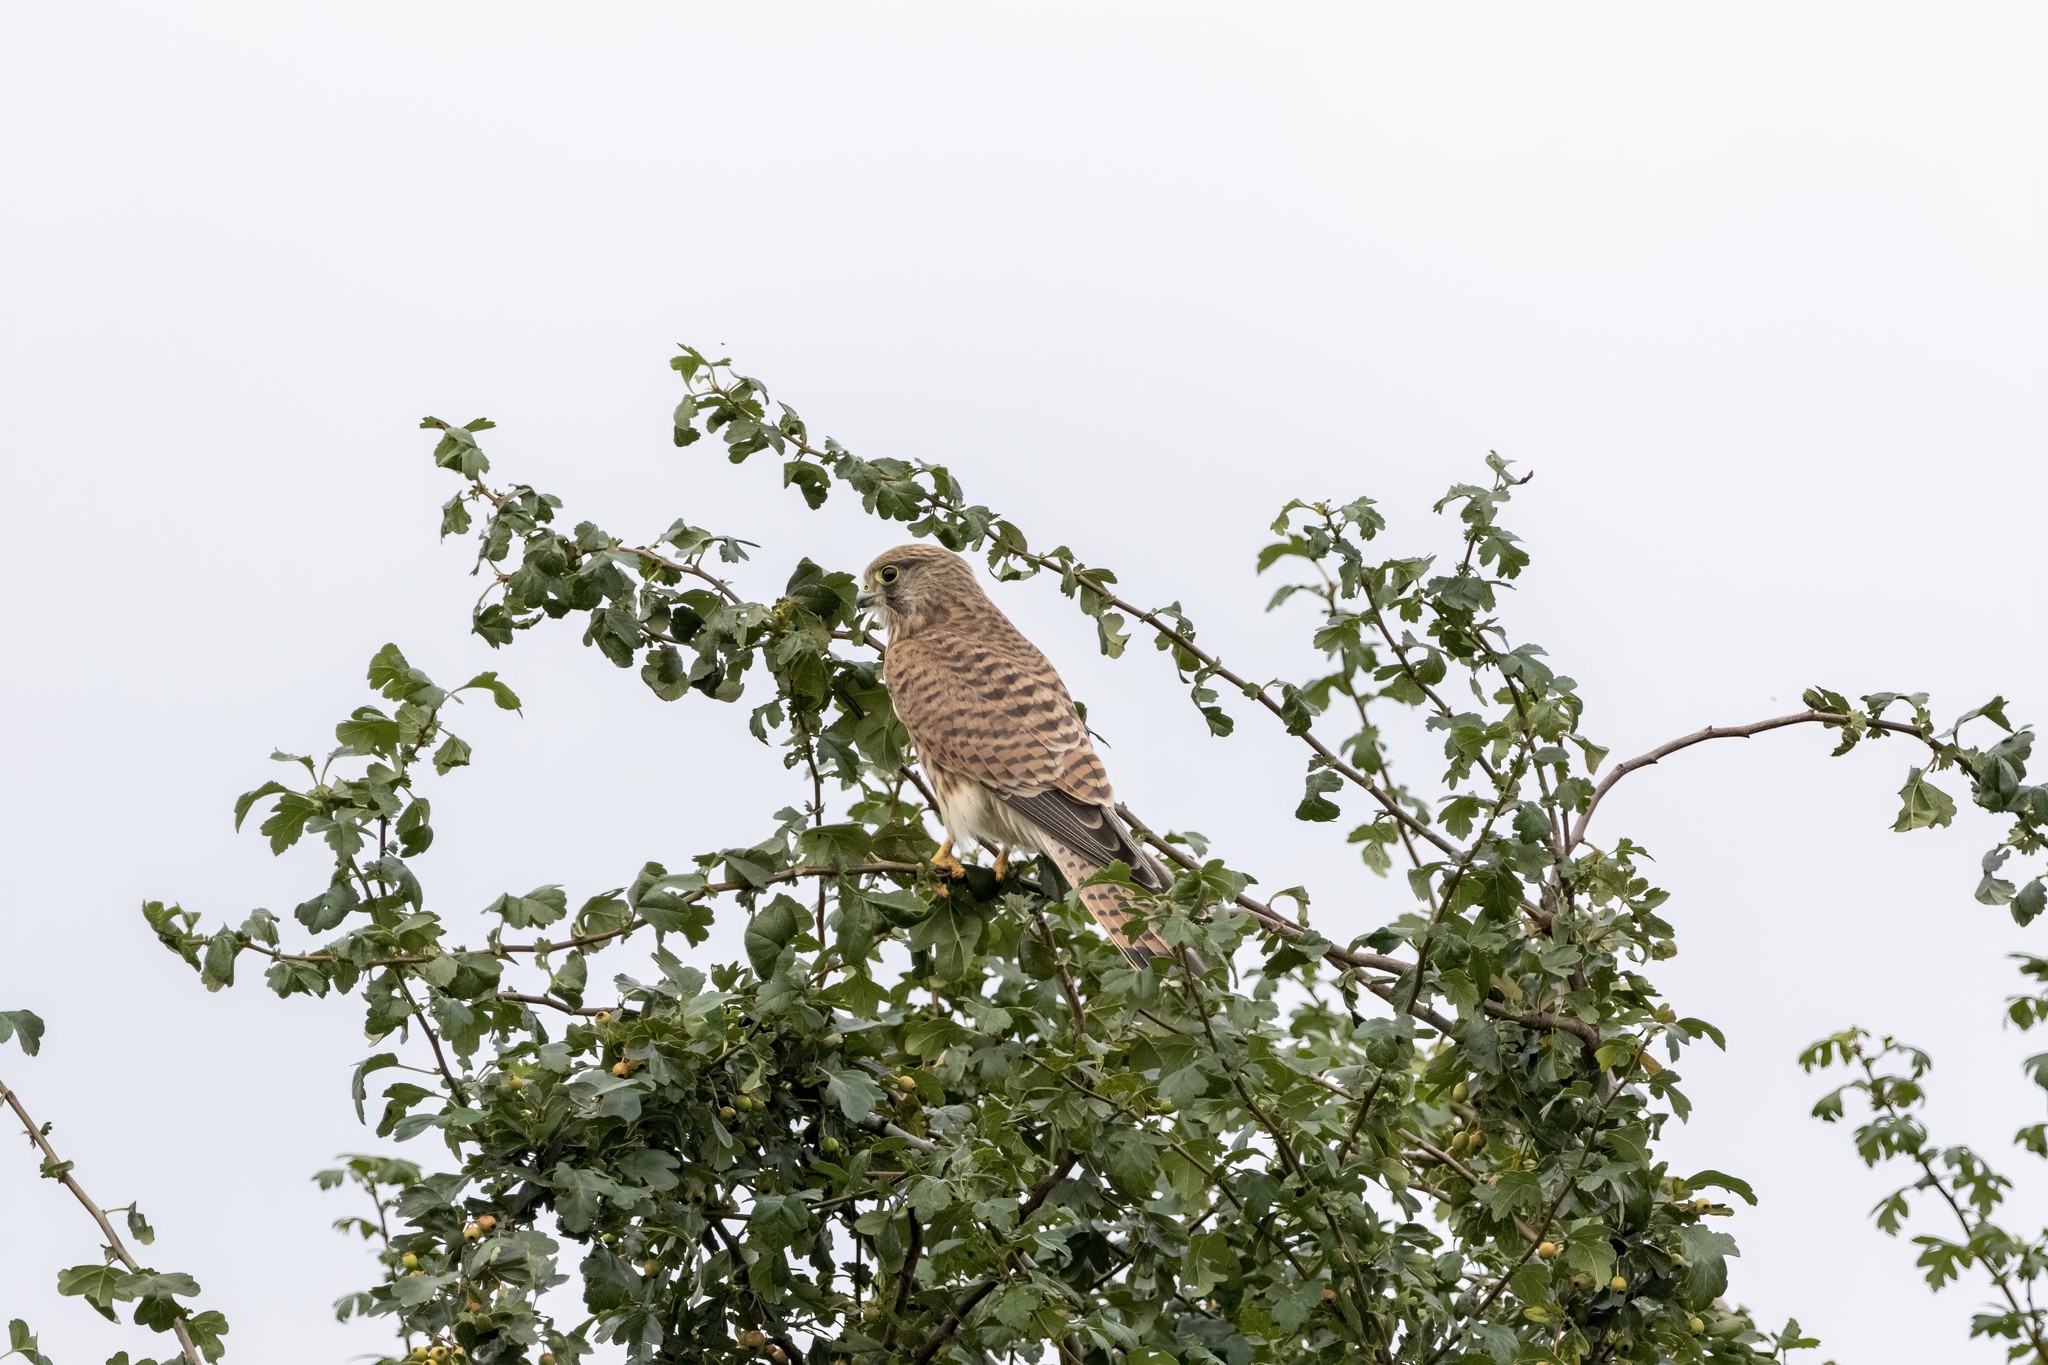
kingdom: Animalia
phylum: Chordata
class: Aves
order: Falconiformes
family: Falconidae
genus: Falco
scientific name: Falco tinnunculus
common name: Common kestrel
